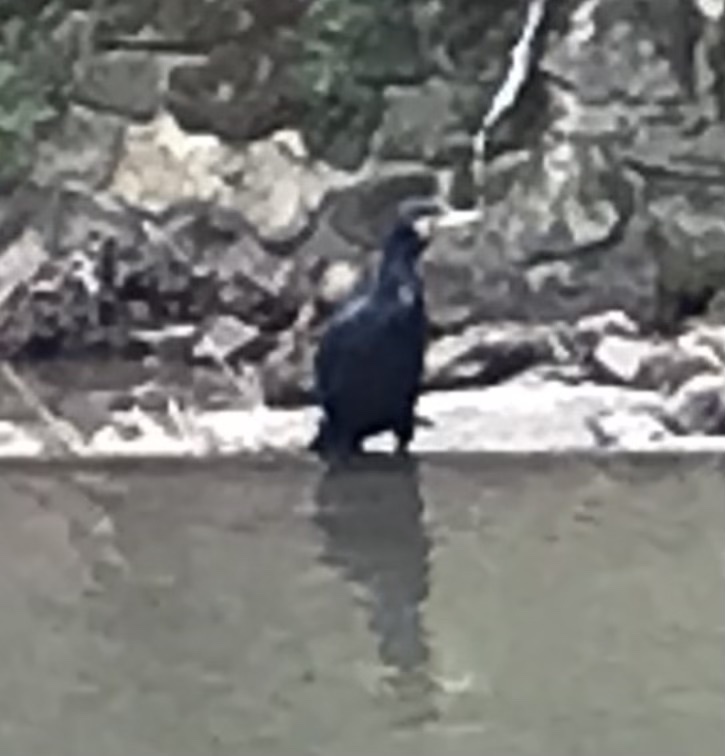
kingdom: Animalia
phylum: Chordata
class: Aves
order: Suliformes
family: Phalacrocoracidae
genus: Phalacrocorax
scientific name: Phalacrocorax carbo
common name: Great cormorant
